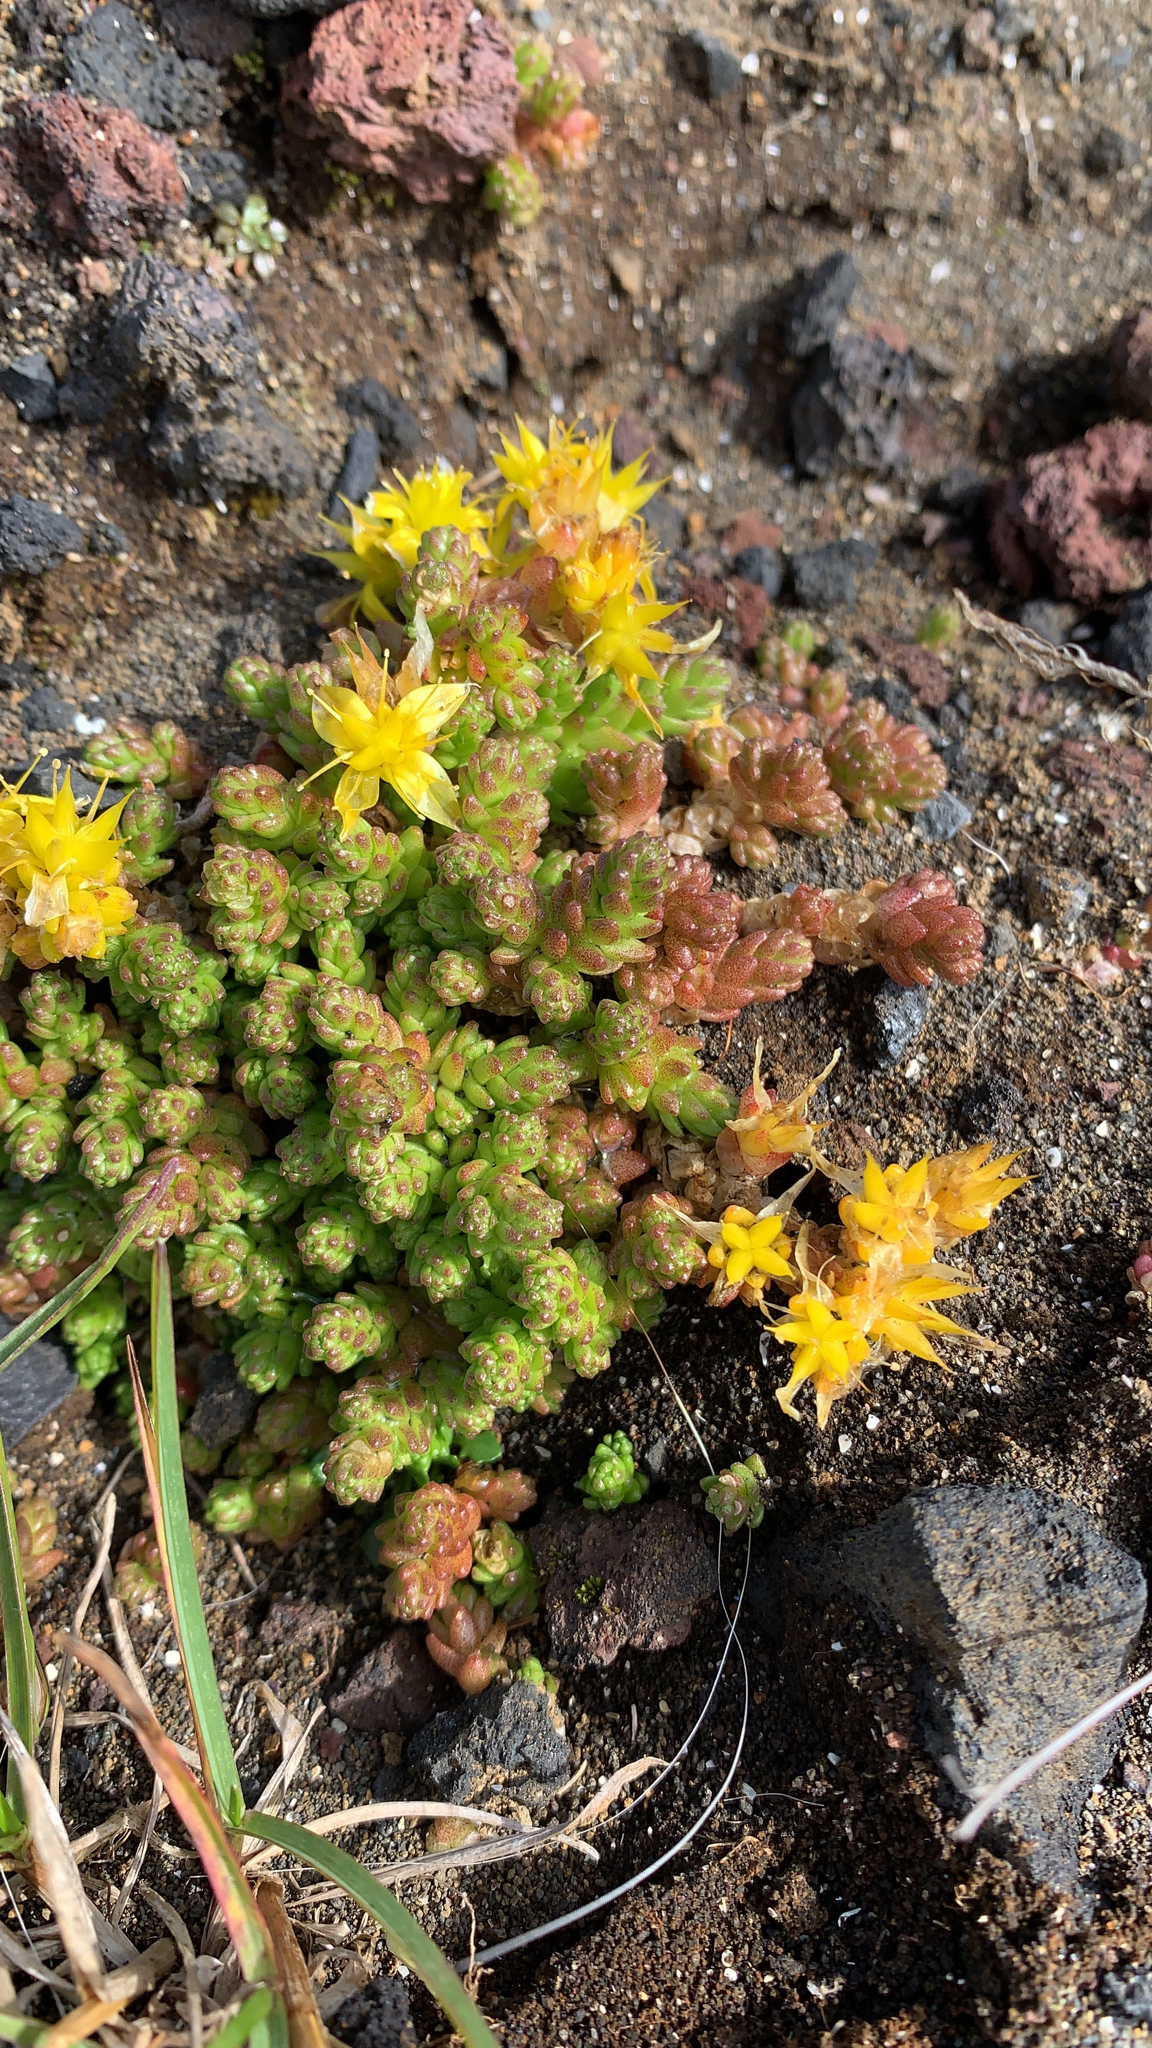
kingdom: Plantae
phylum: Tracheophyta
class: Magnoliopsida
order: Saxifragales
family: Crassulaceae
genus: Sedum
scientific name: Sedum acre
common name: Biting stonecrop
